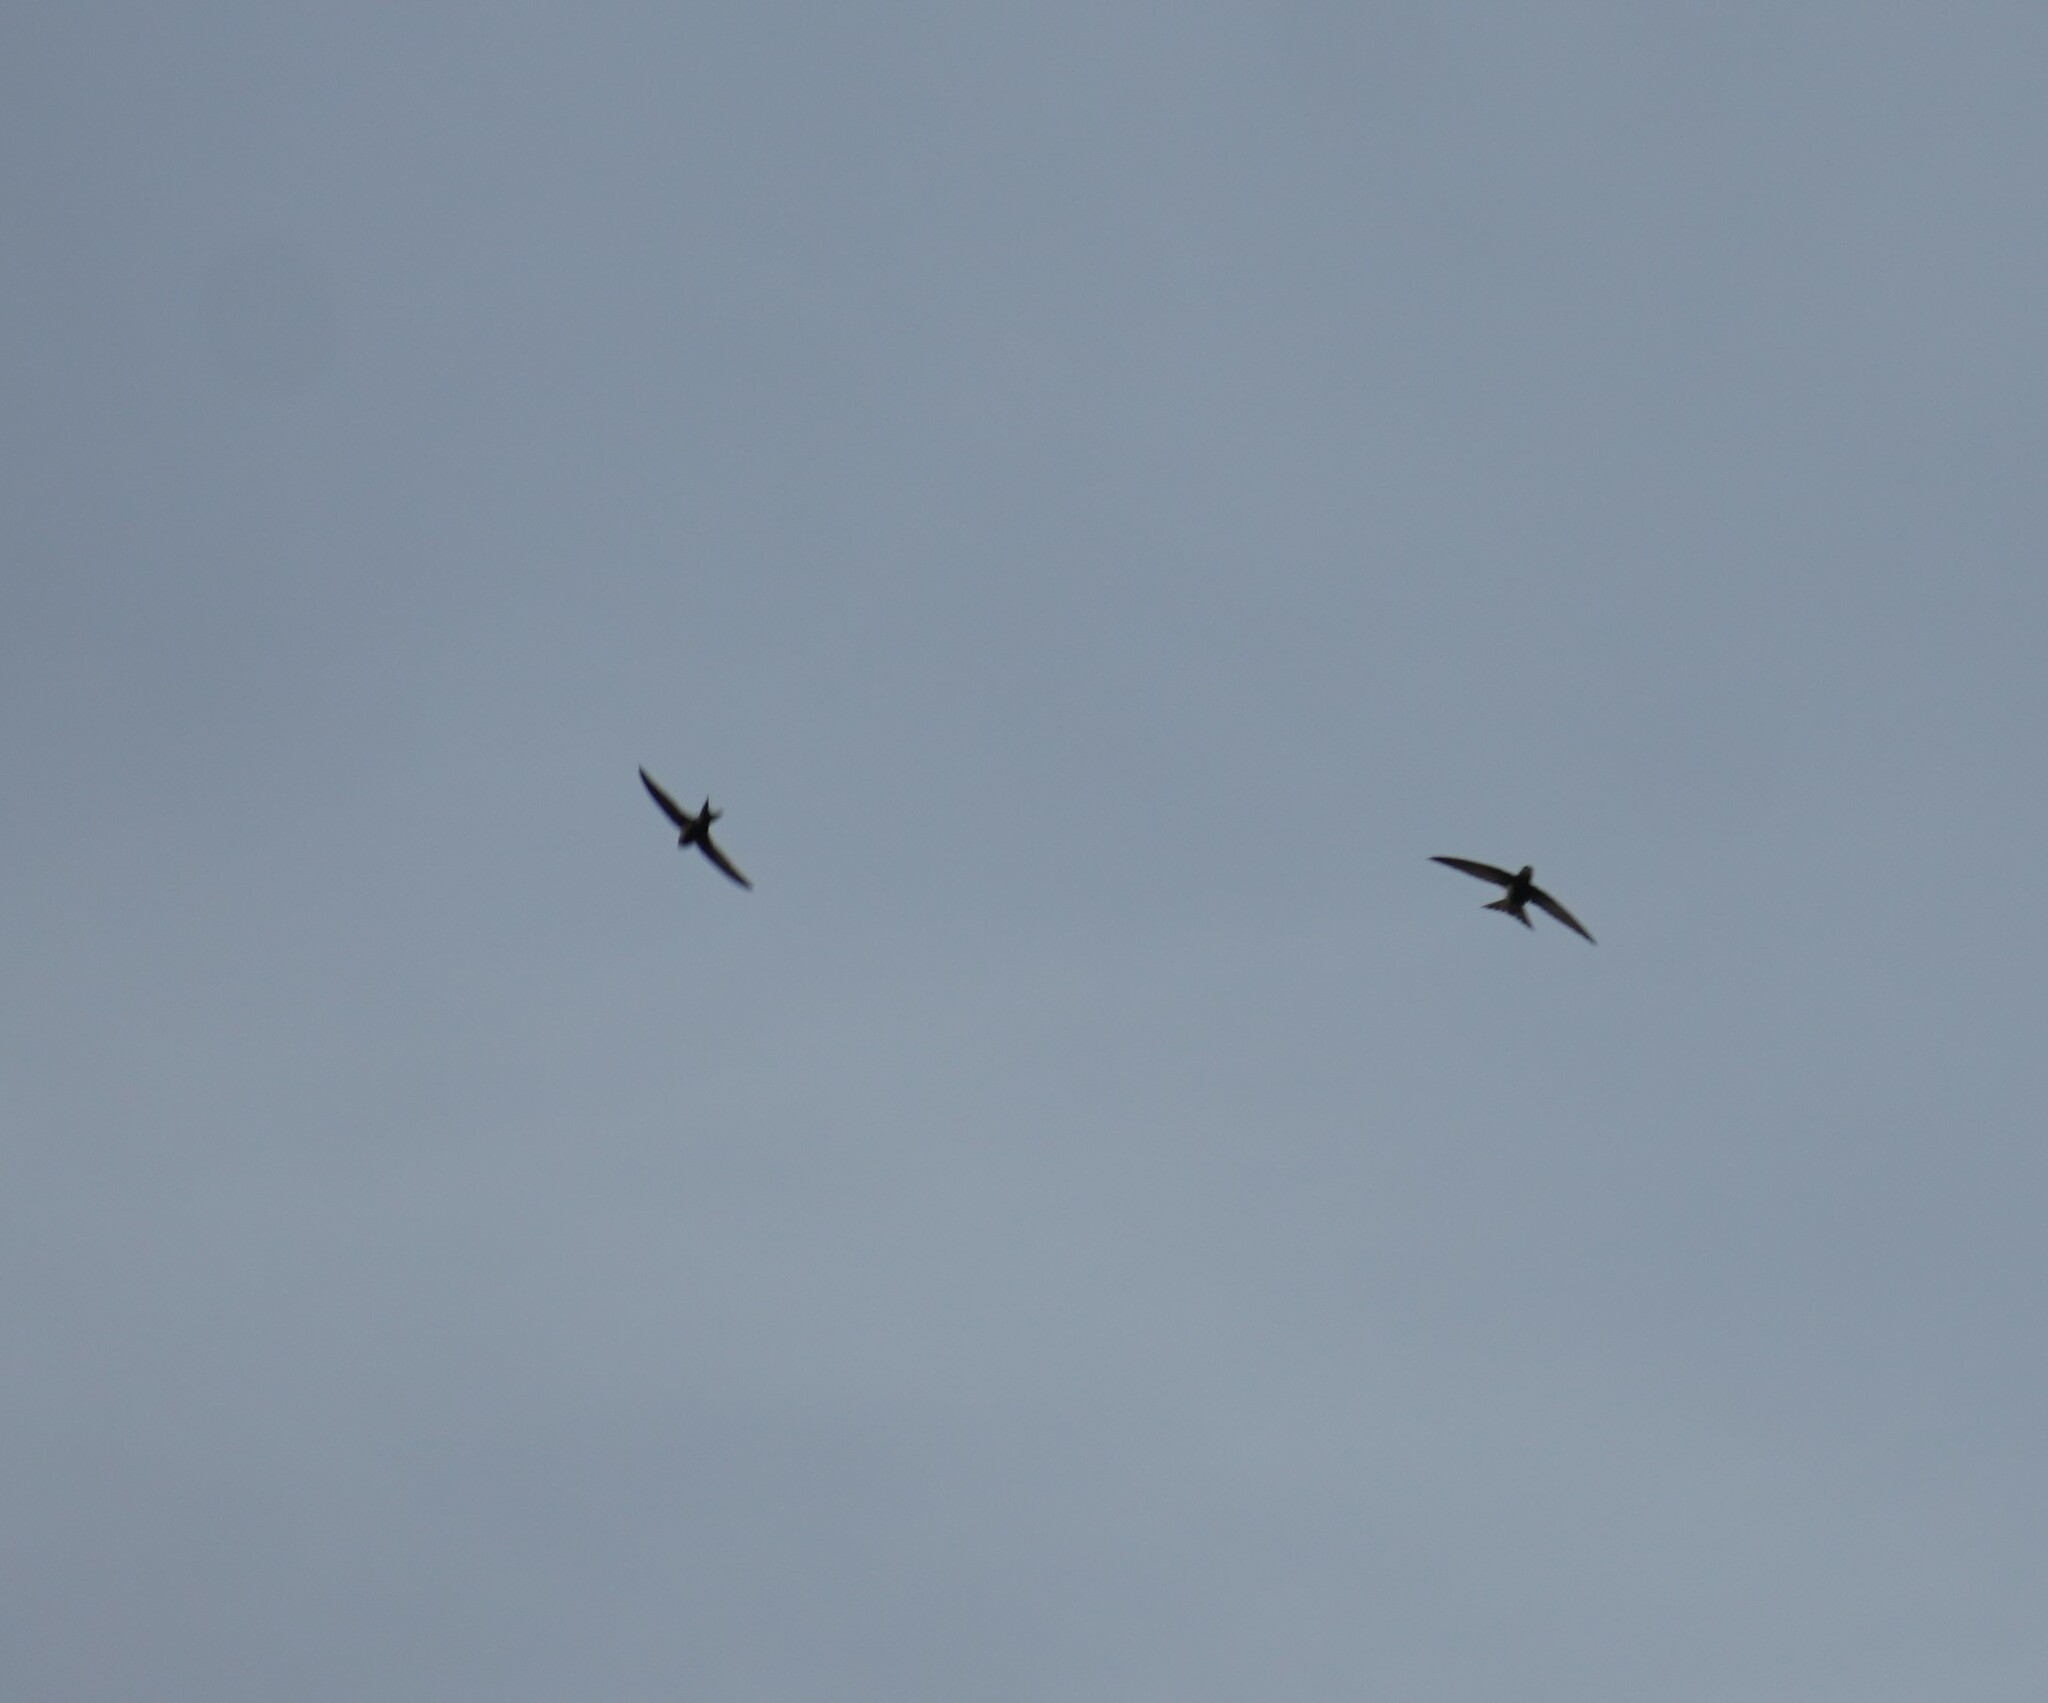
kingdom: Animalia
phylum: Chordata
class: Aves
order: Apodiformes
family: Apodidae
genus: Apus
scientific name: Apus apus
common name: Common swift
